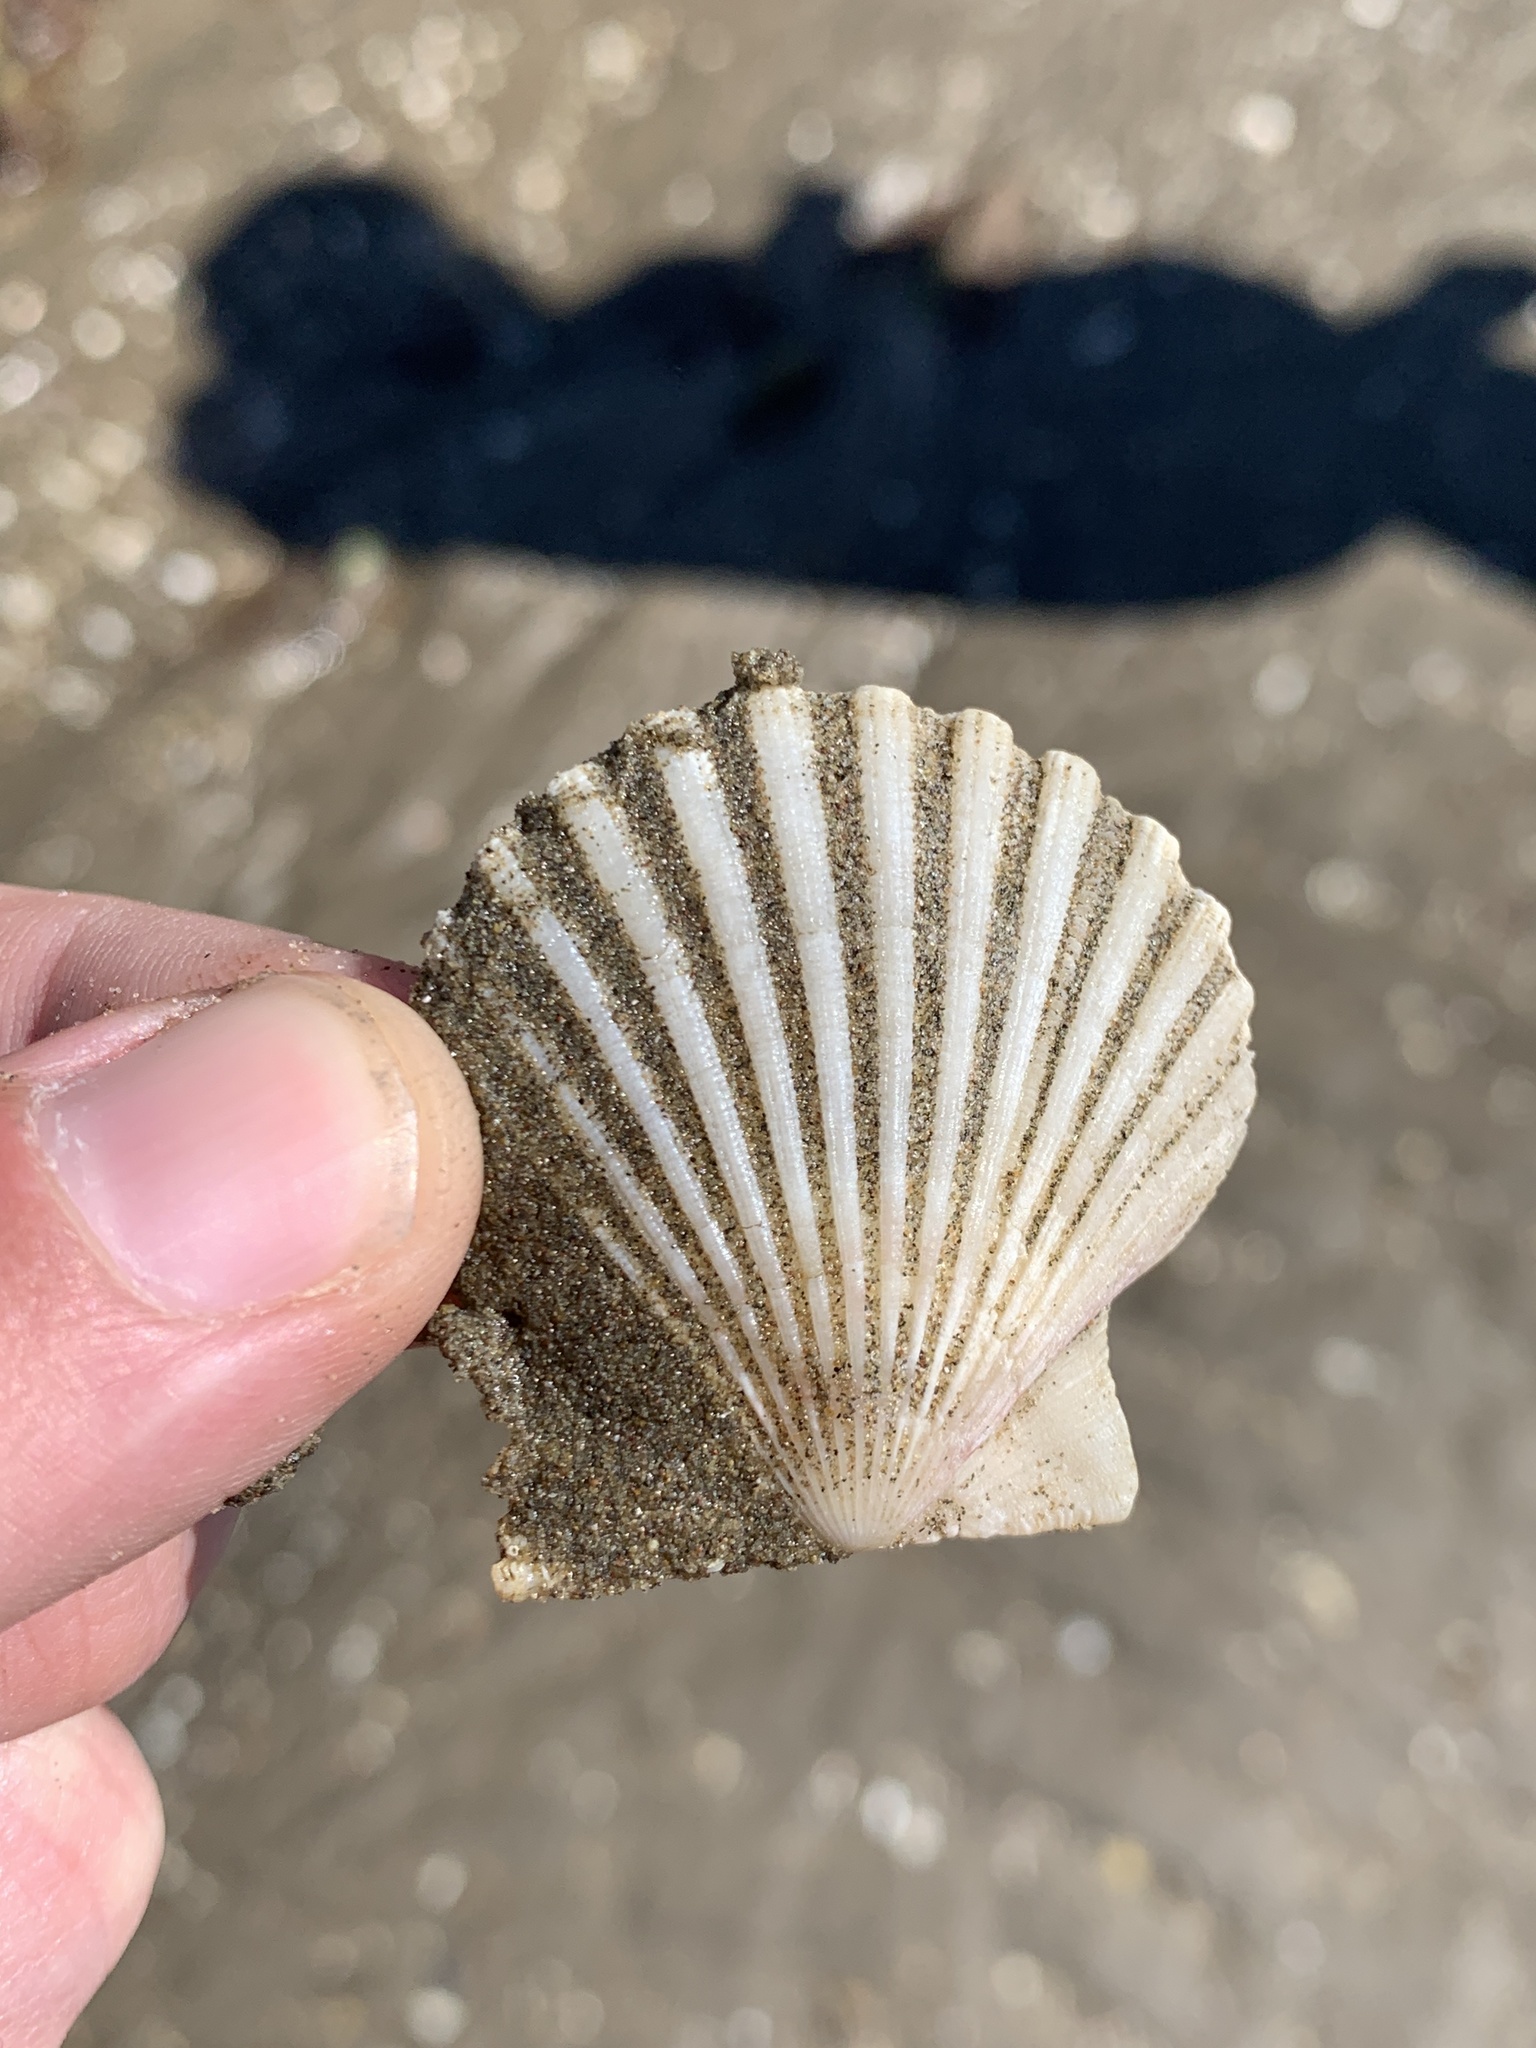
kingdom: Animalia
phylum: Mollusca
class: Bivalvia
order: Pectinida
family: Pectinidae
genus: Aequipecten
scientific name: Aequipecten tehuelchus
